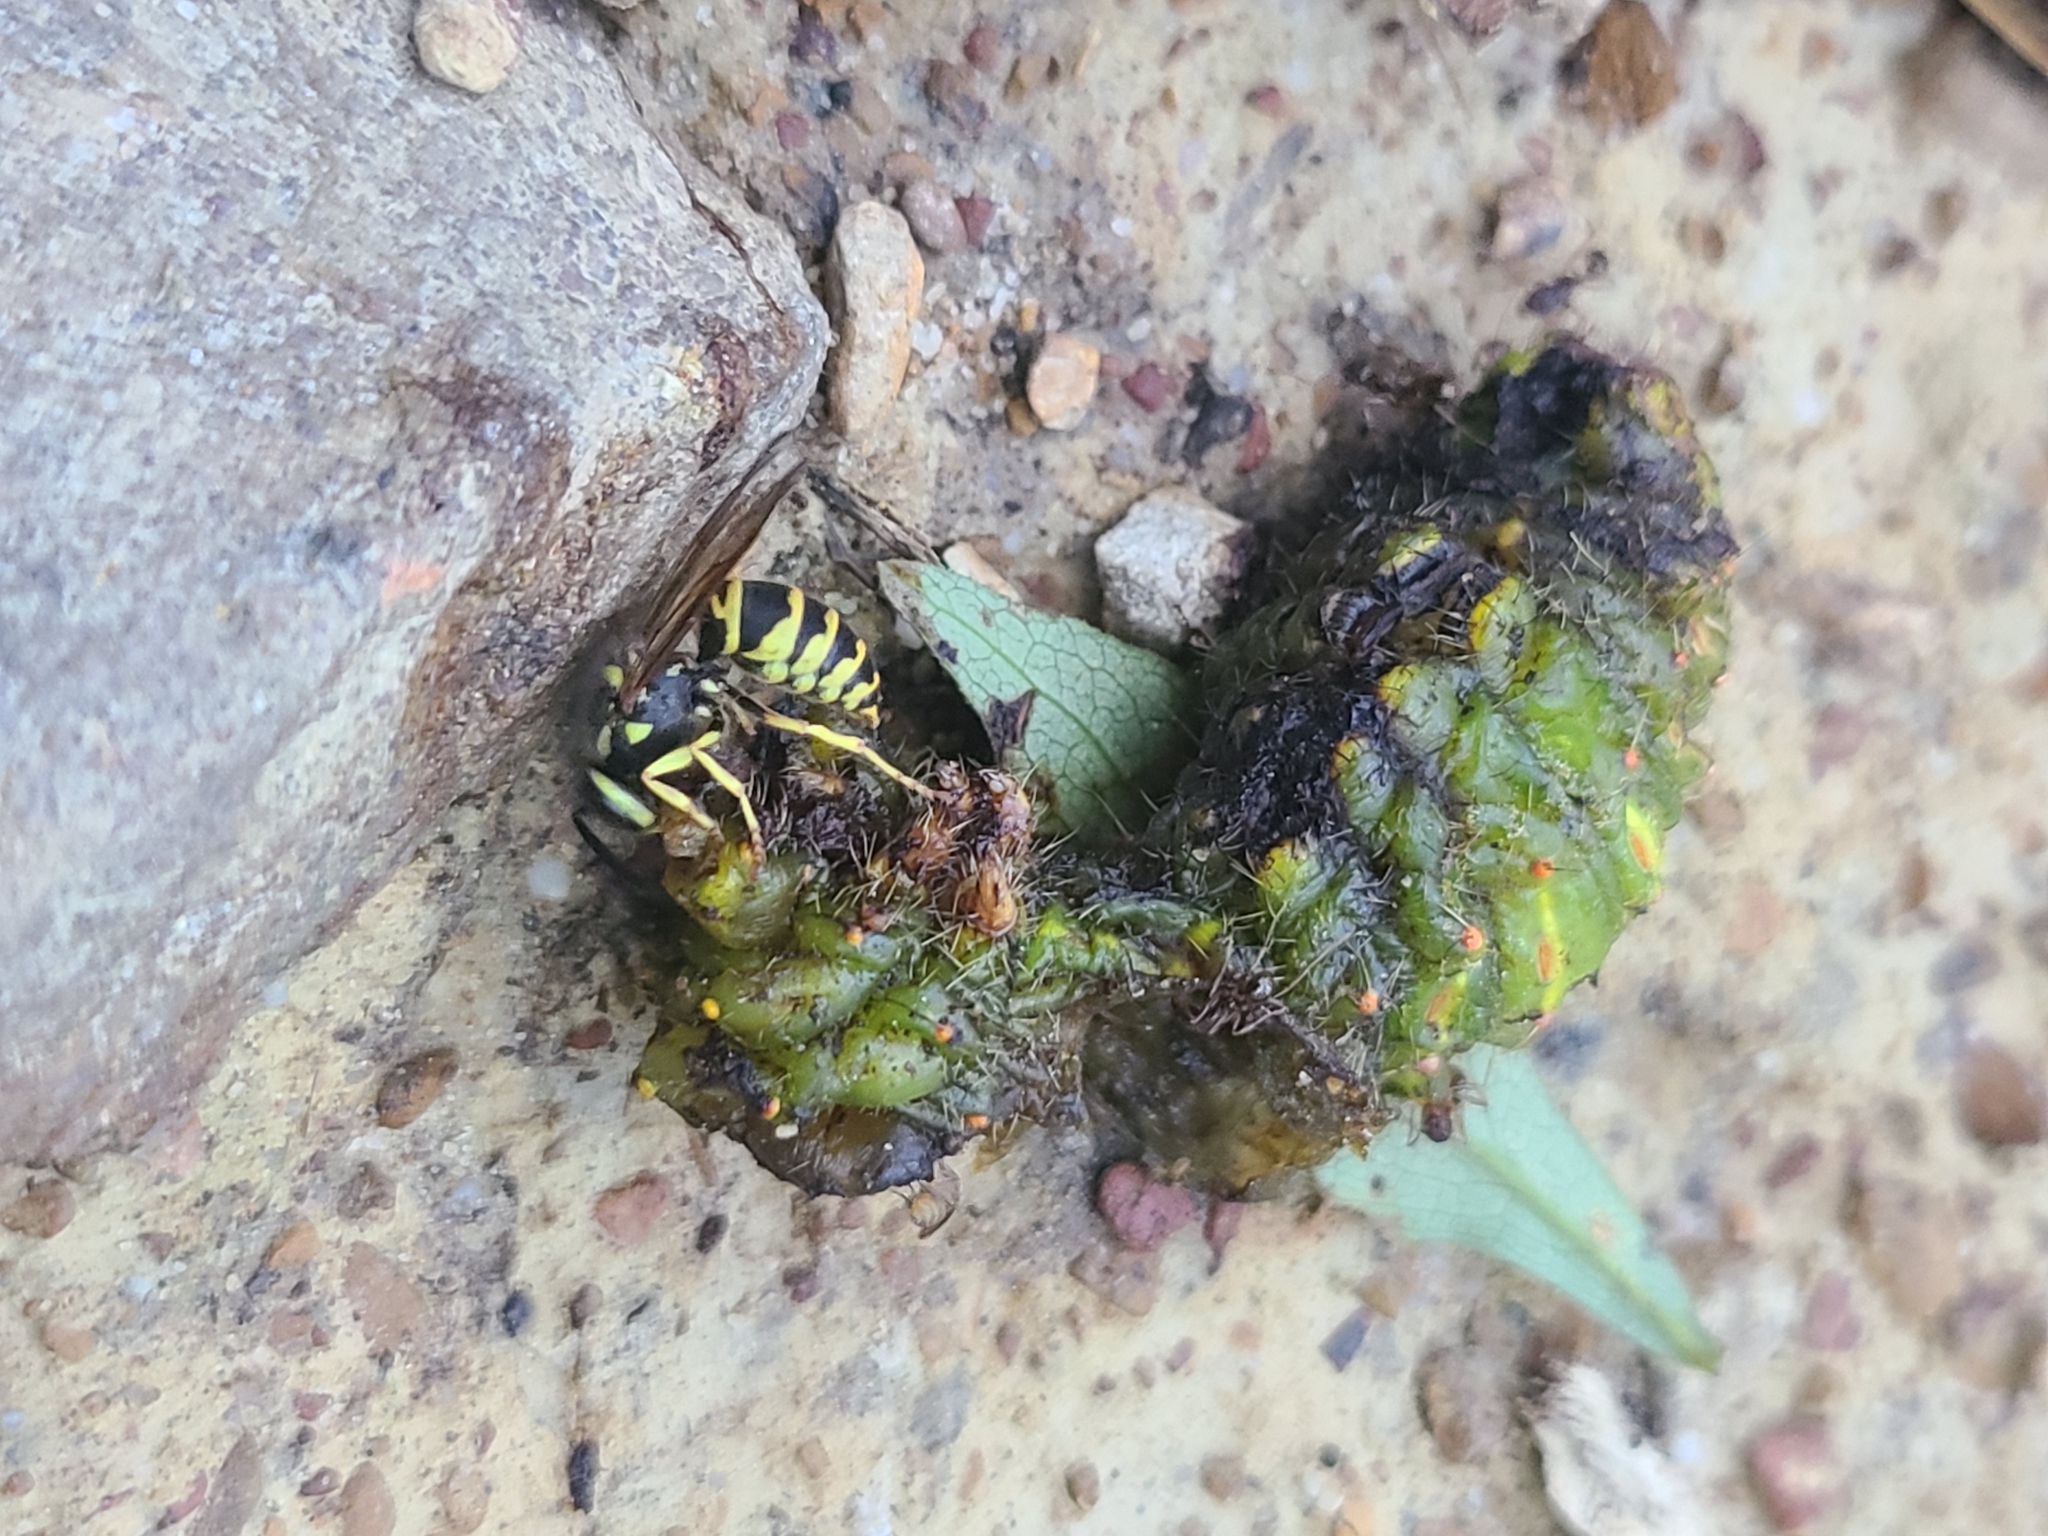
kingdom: Animalia
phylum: Arthropoda
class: Insecta
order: Hymenoptera
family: Vespidae
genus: Vespula
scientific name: Vespula maculifrons
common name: Eastern yellowjacket
